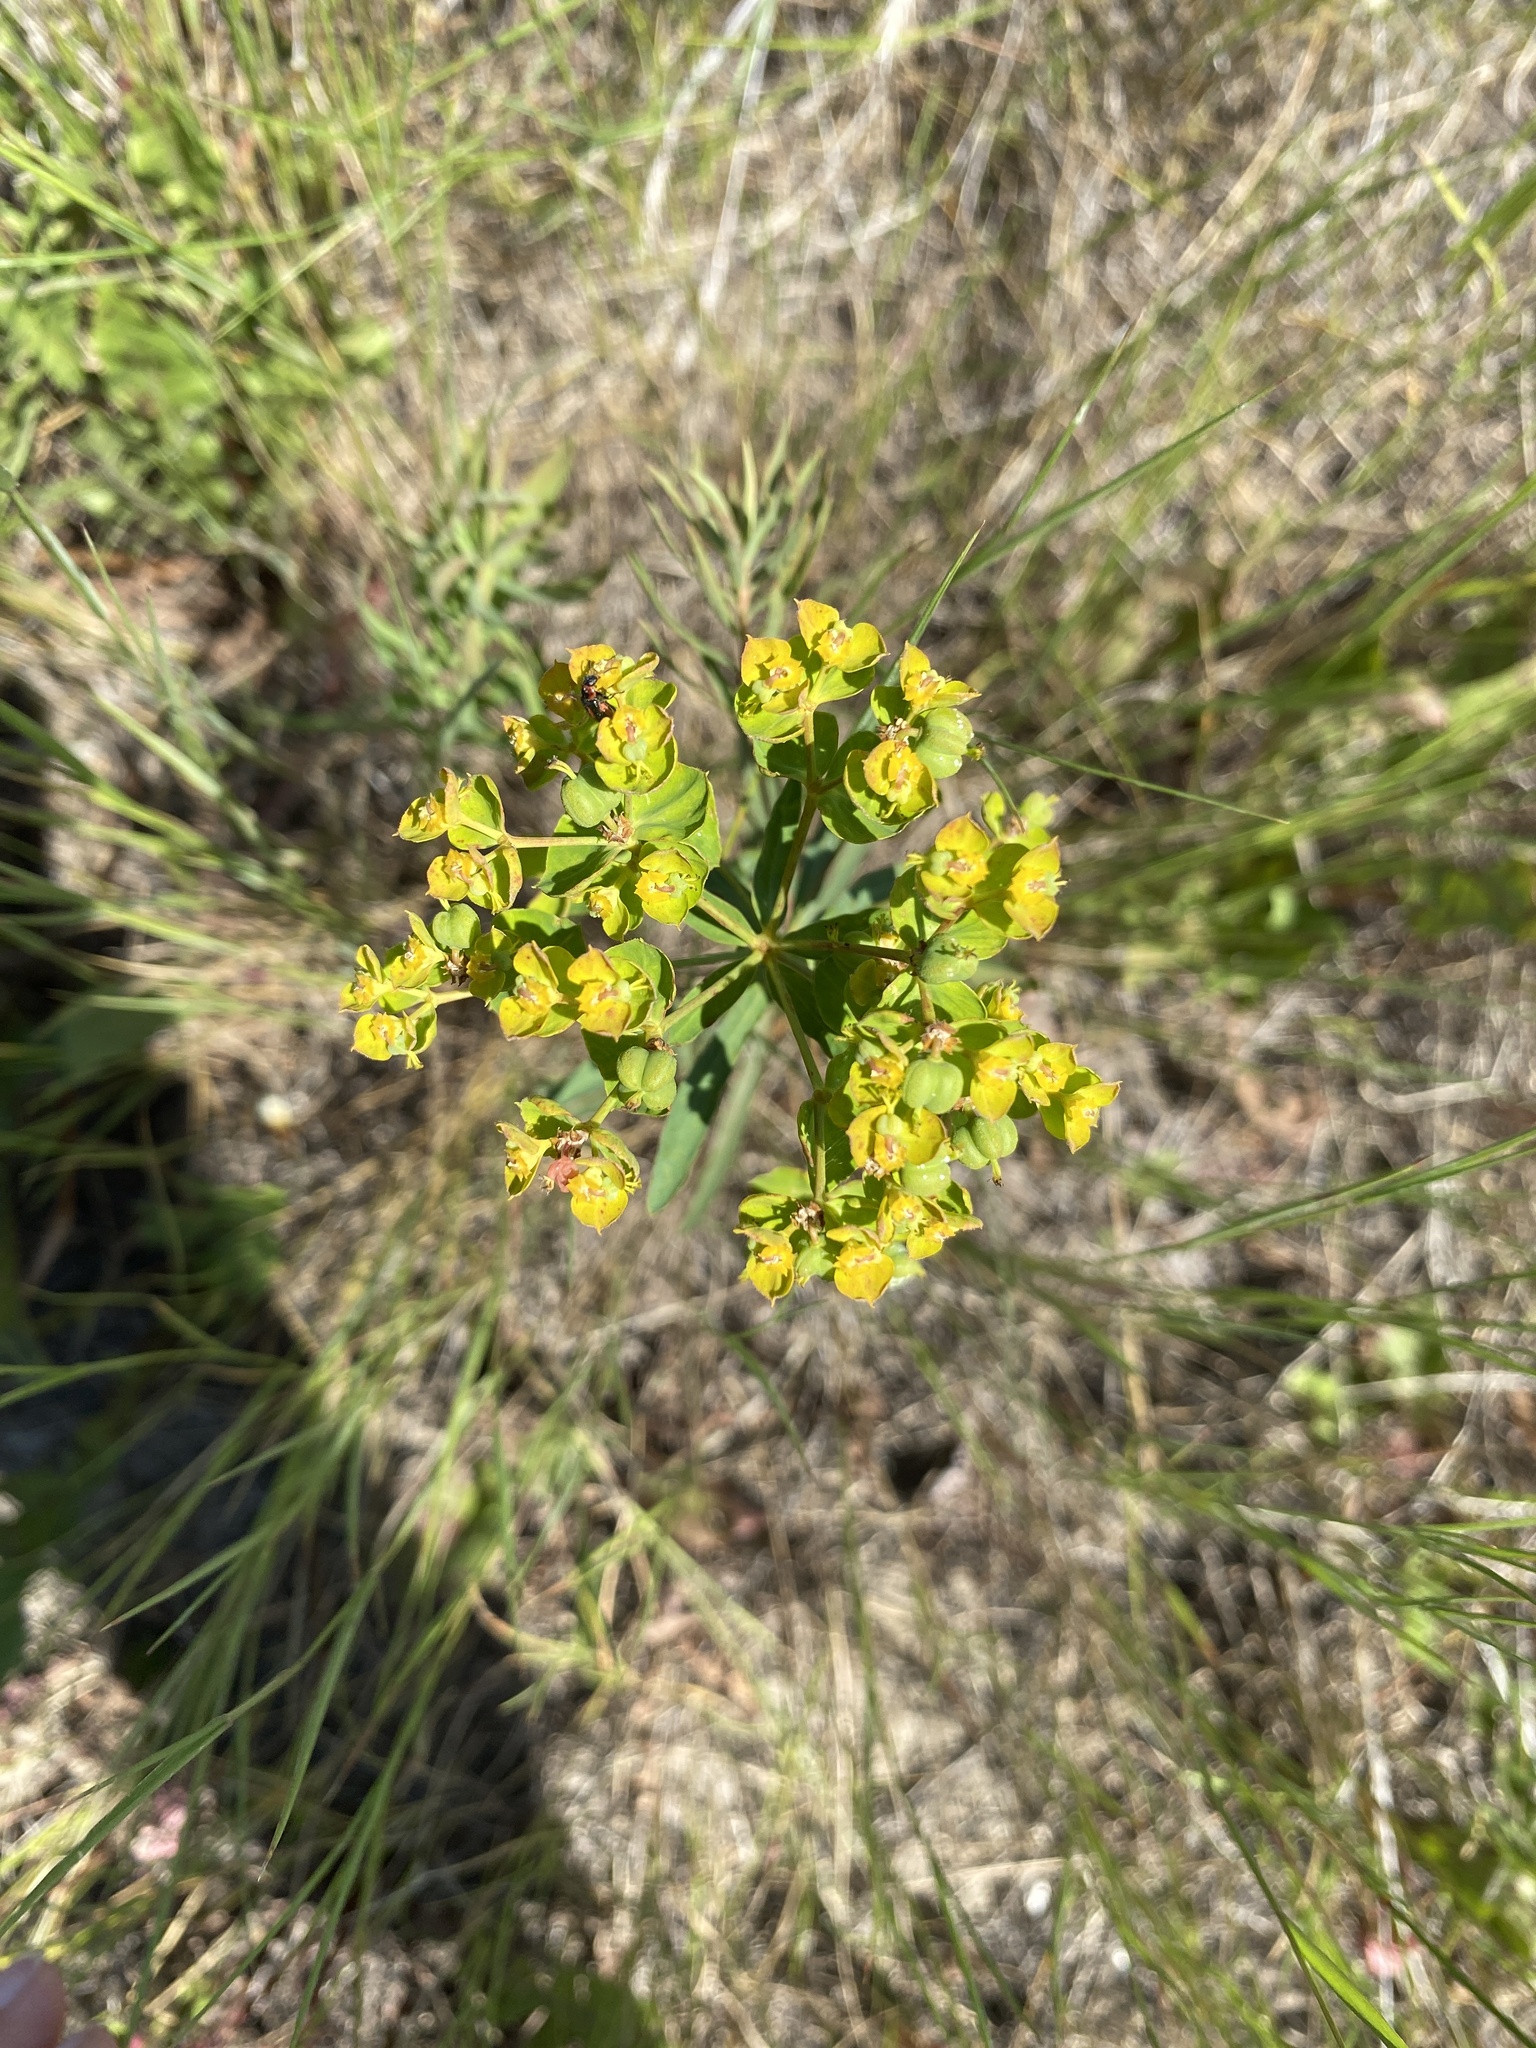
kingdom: Plantae
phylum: Tracheophyta
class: Magnoliopsida
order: Malpighiales
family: Euphorbiaceae
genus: Euphorbia
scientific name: Euphorbia virgata
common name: Leafy spurge
